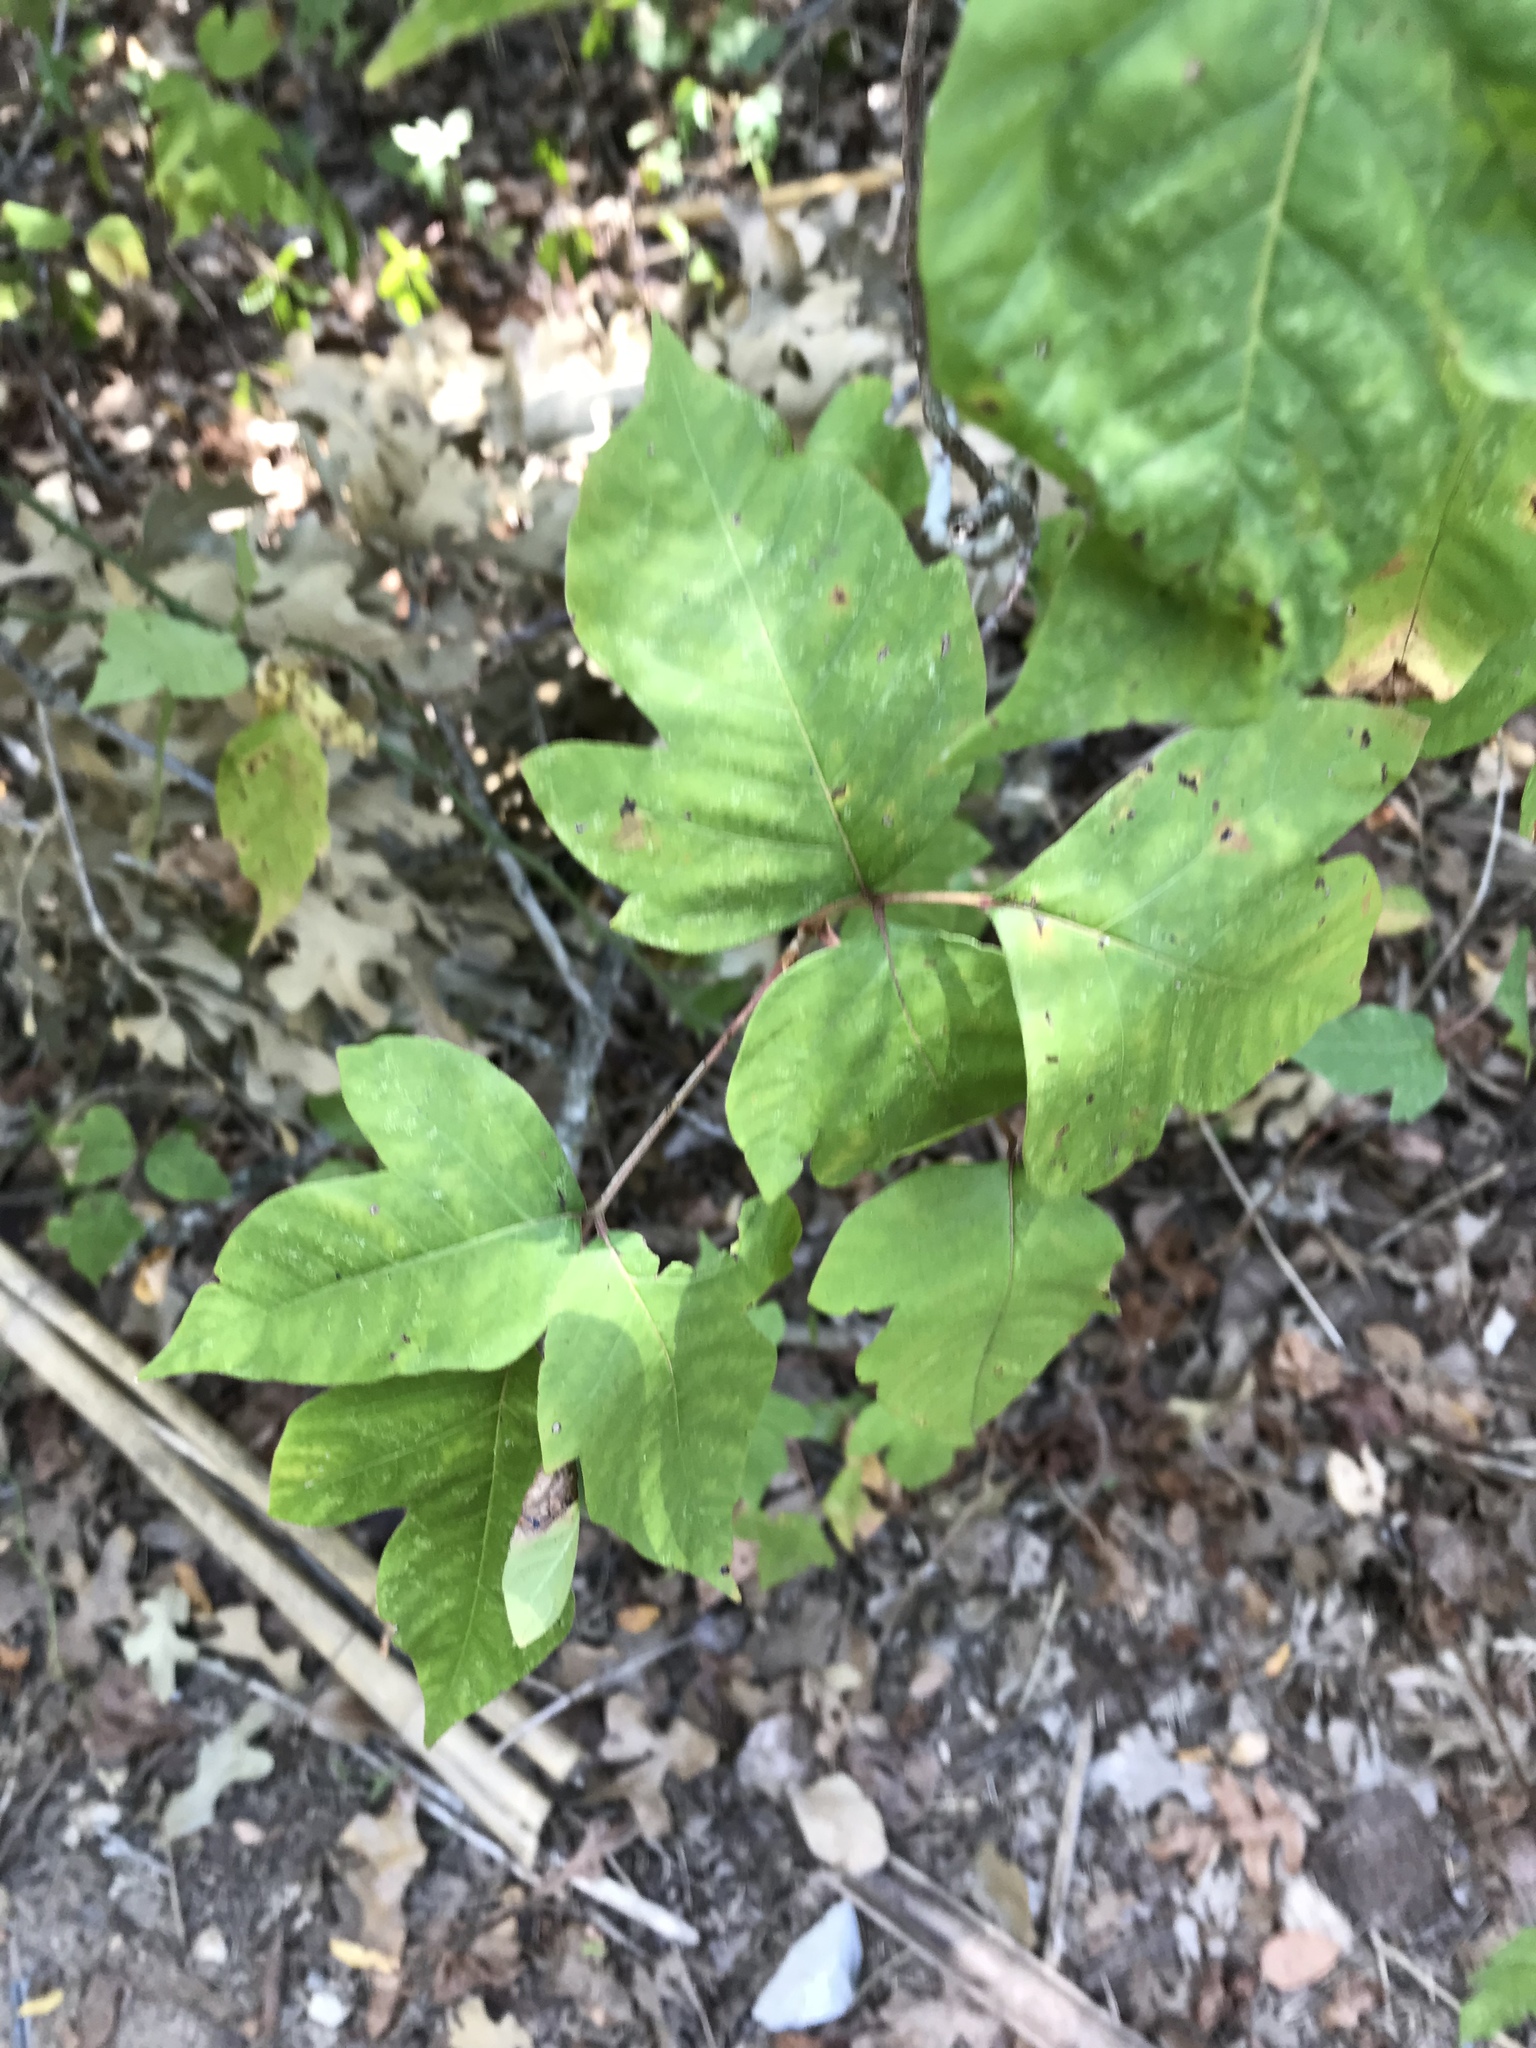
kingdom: Plantae
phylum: Tracheophyta
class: Magnoliopsida
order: Sapindales
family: Anacardiaceae
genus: Toxicodendron
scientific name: Toxicodendron radicans
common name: Poison ivy
